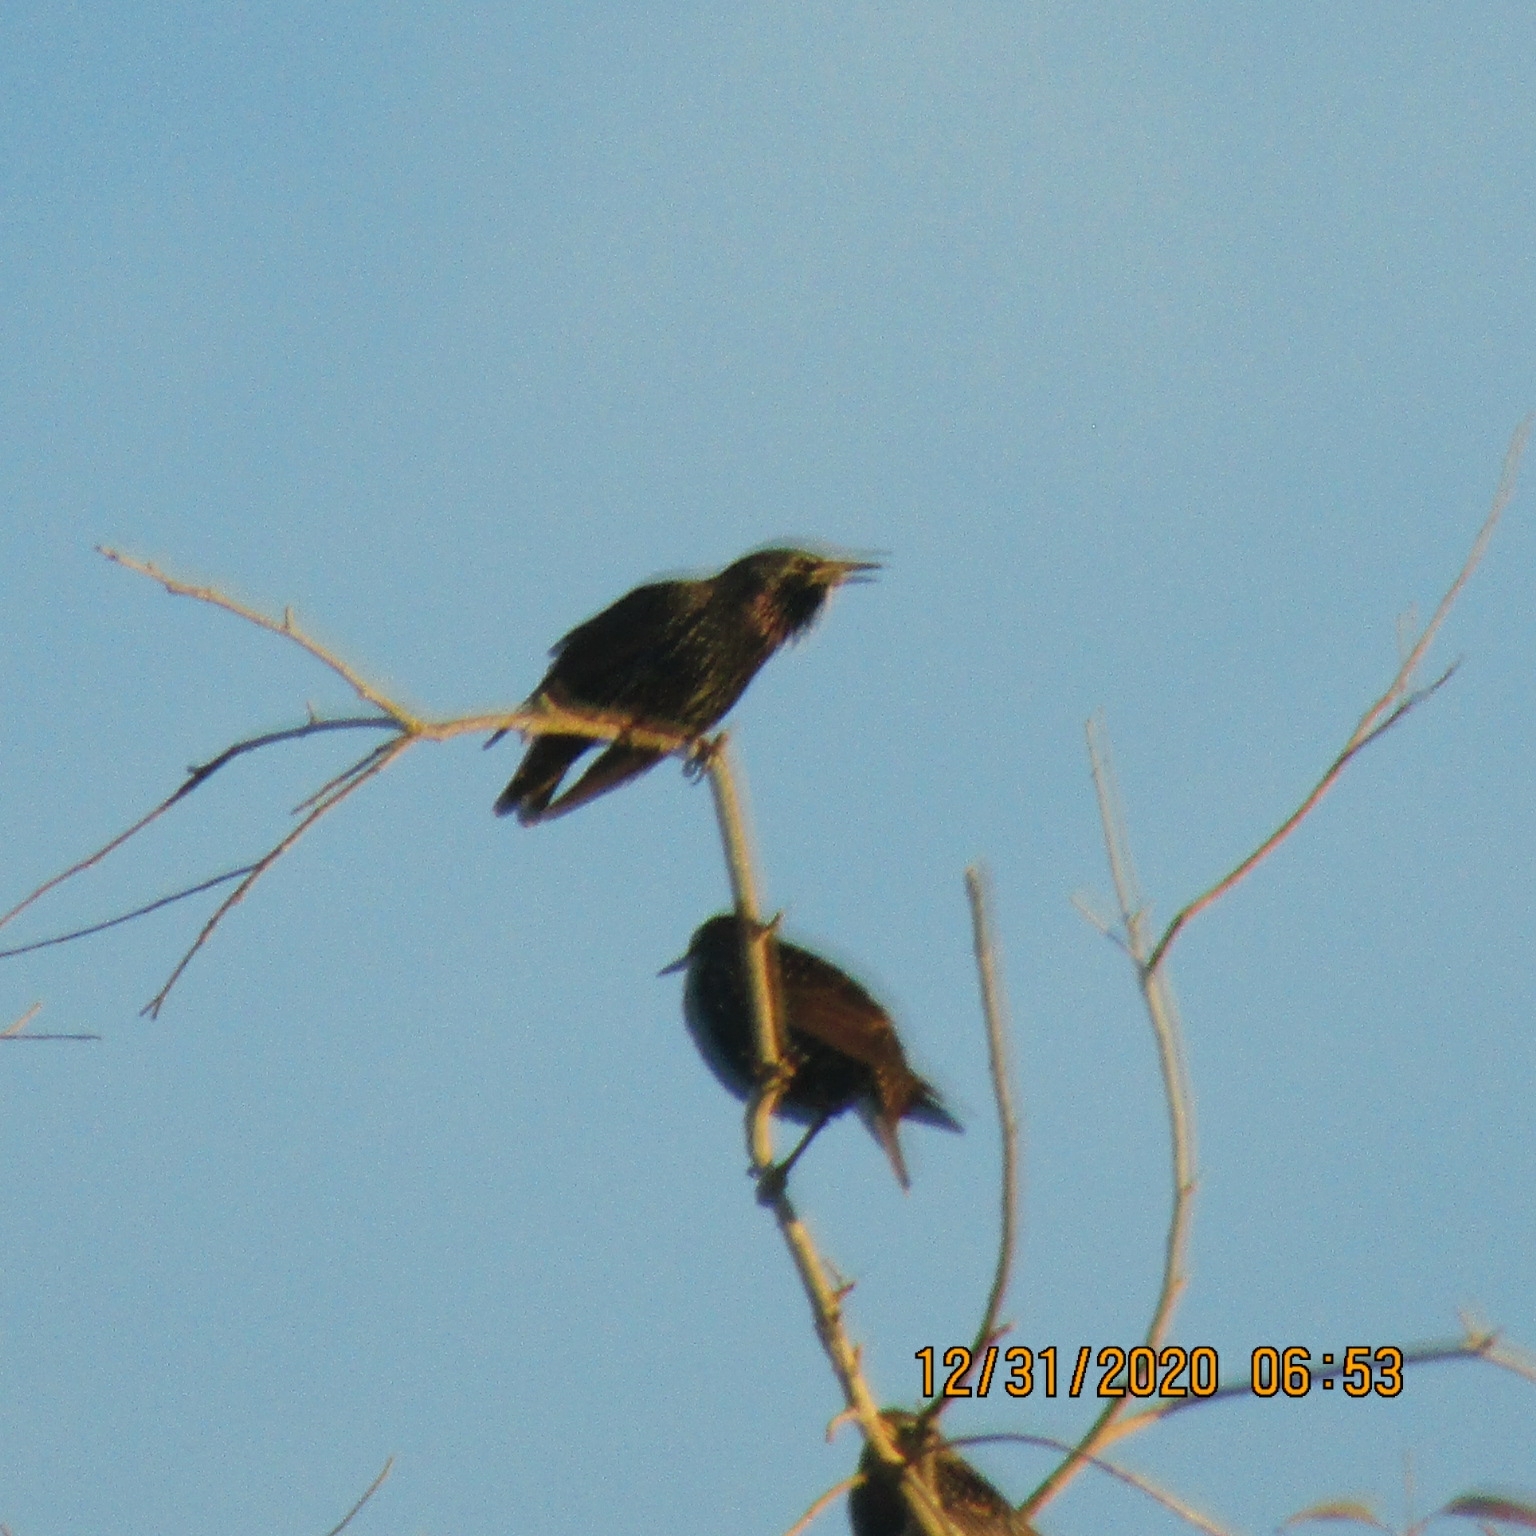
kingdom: Animalia
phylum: Chordata
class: Aves
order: Passeriformes
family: Sturnidae
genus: Sturnus
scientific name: Sturnus vulgaris
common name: Common starling
